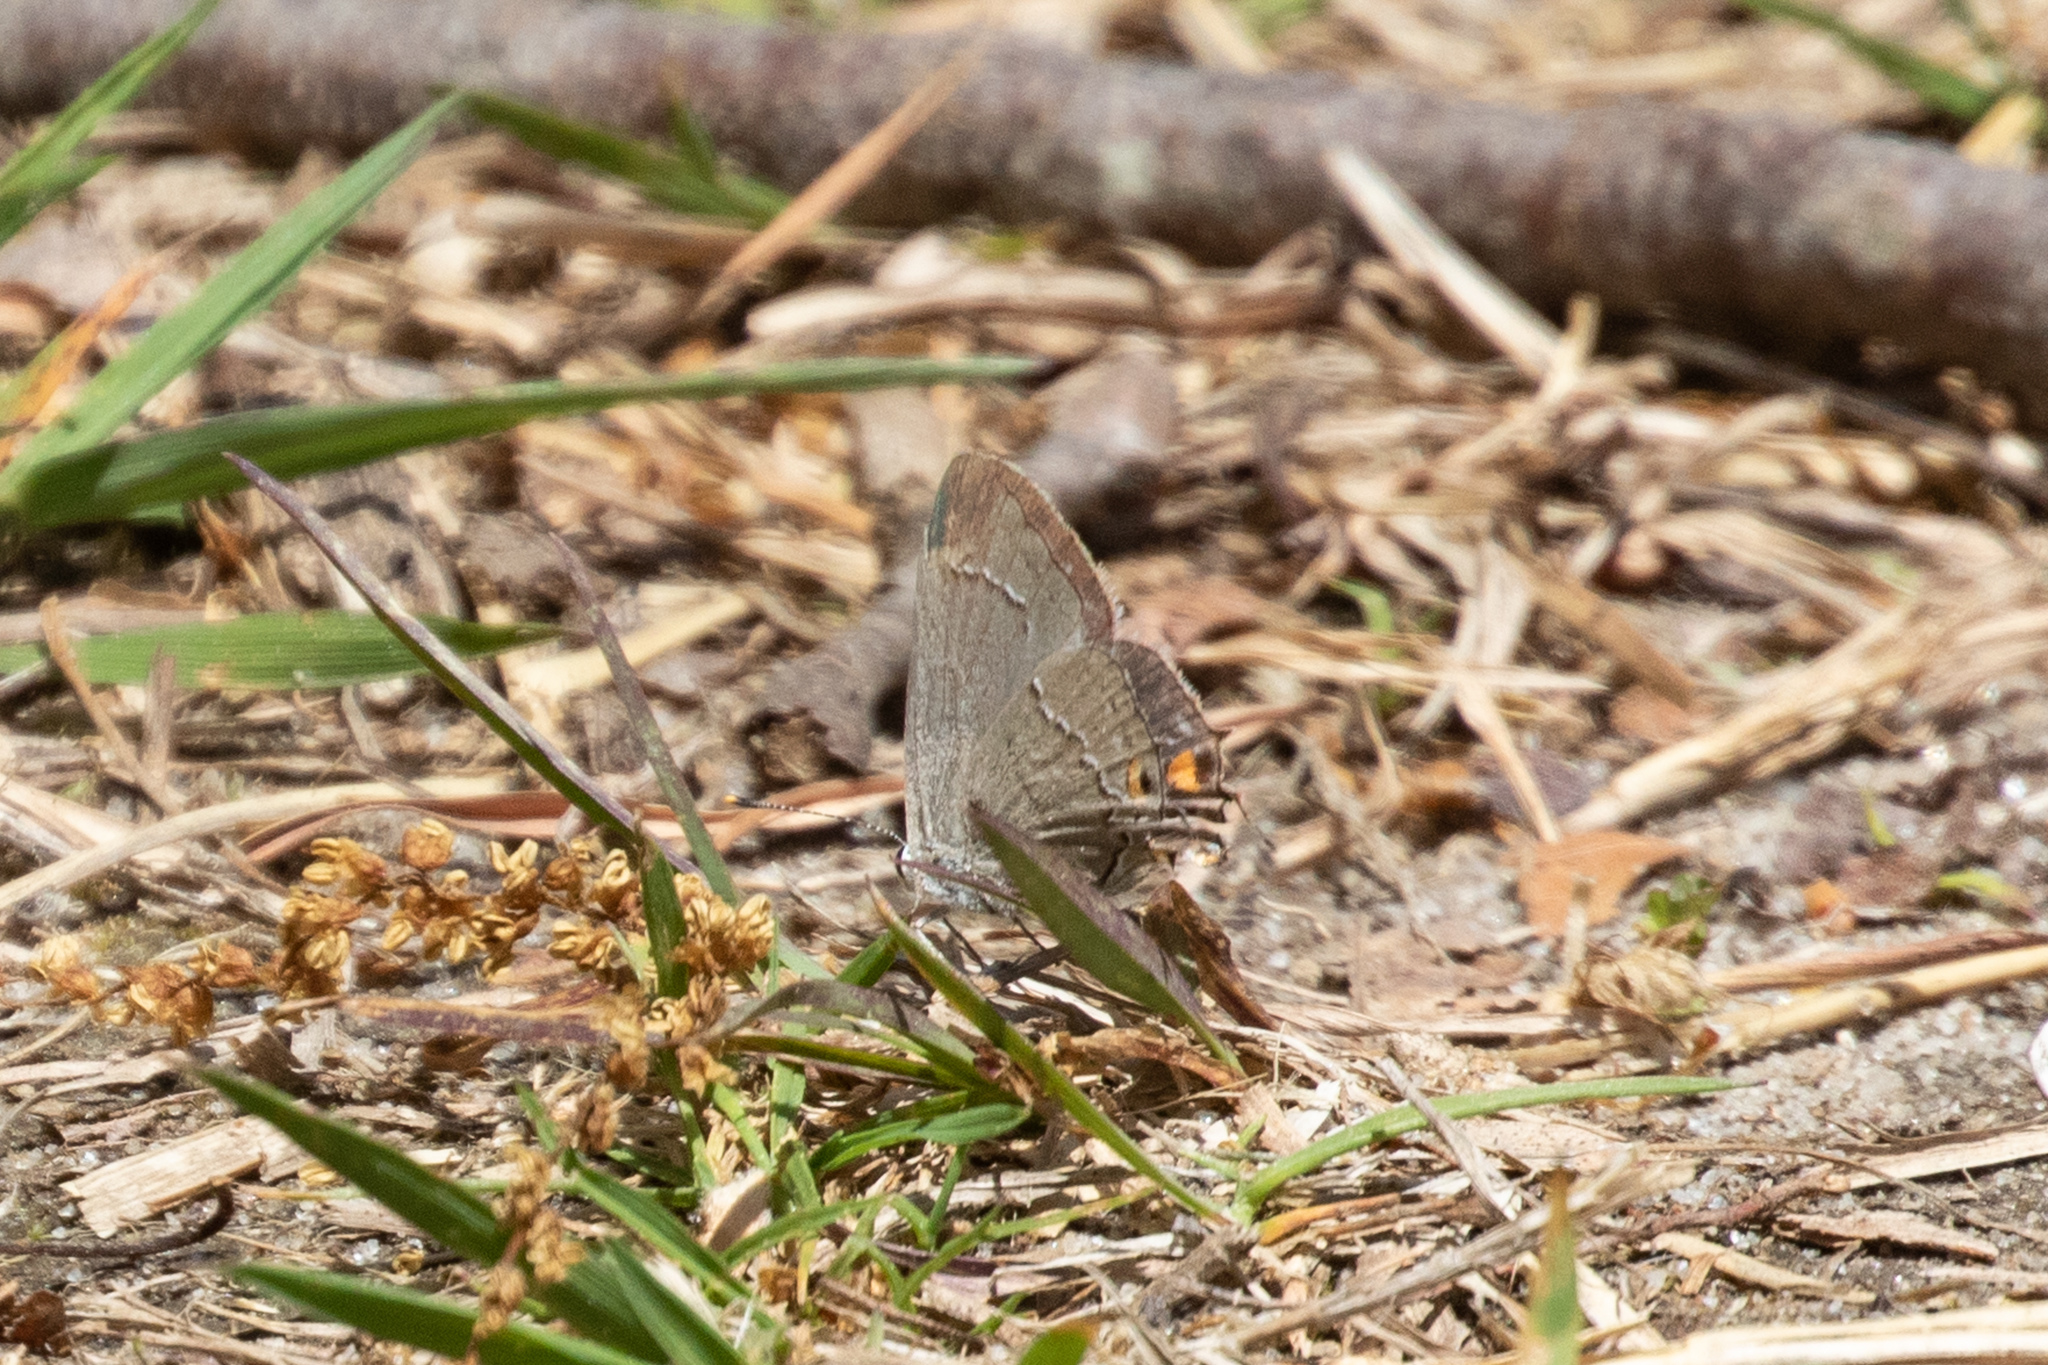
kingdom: Animalia
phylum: Arthropoda
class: Insecta
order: Lepidoptera
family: Lycaenidae
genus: Strymon
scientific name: Strymon melinus
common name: Gray hairstreak
